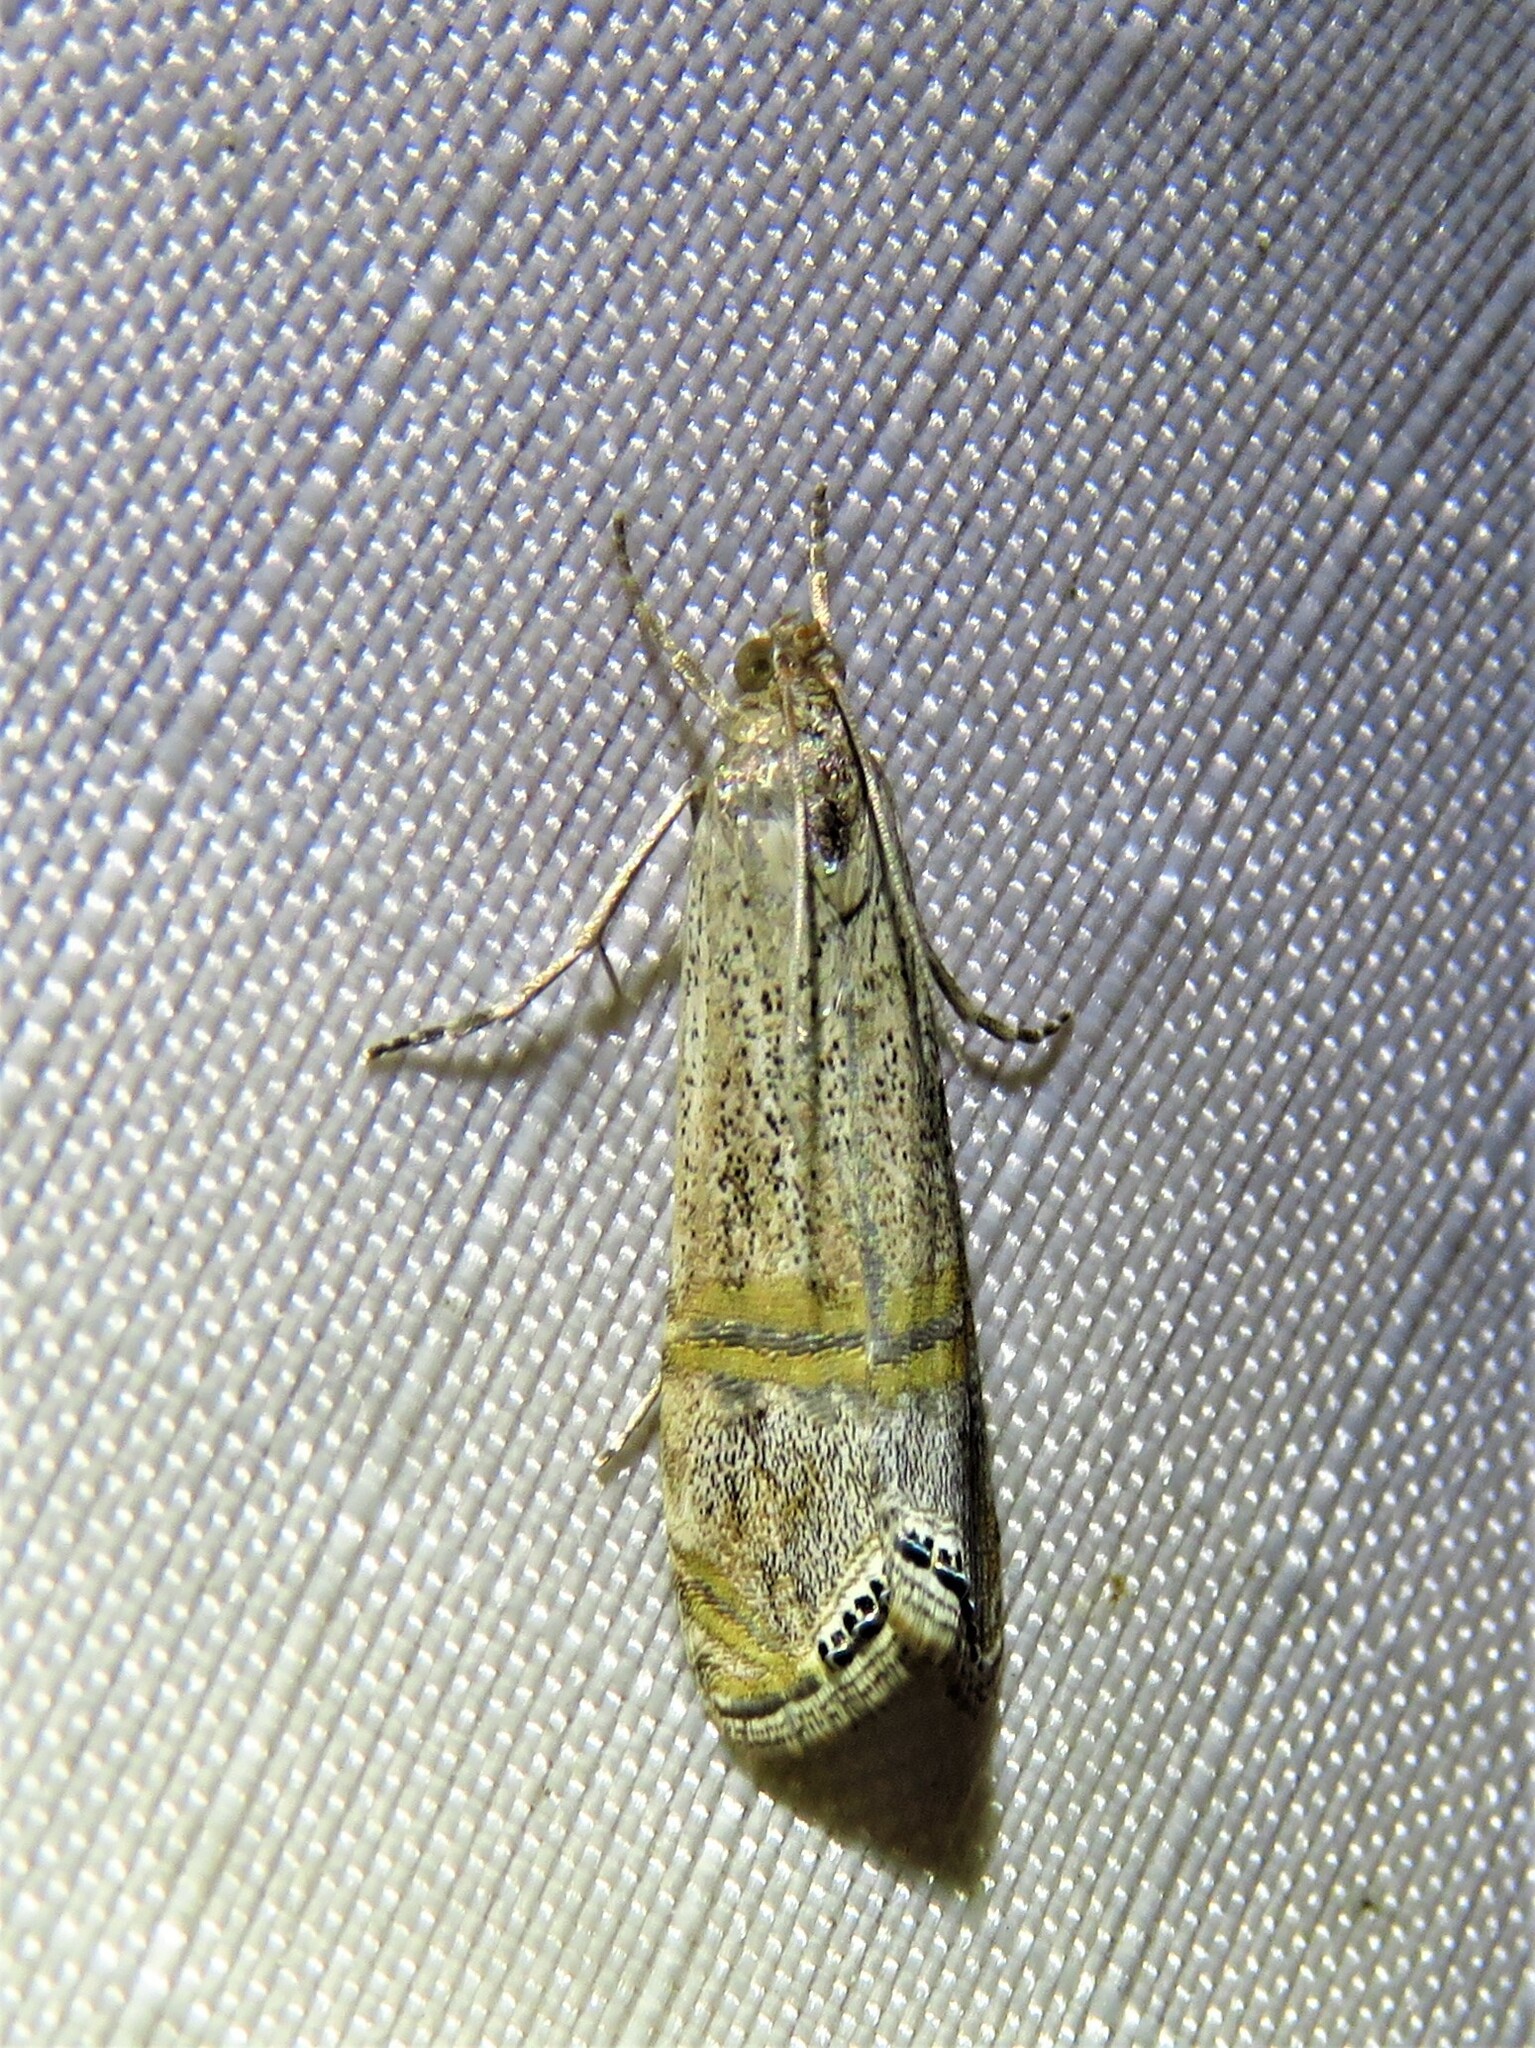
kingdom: Animalia
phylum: Arthropoda
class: Insecta
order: Lepidoptera
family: Crambidae
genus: Euchromius
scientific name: Euchromius ocellea
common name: Necklace veneer moth
